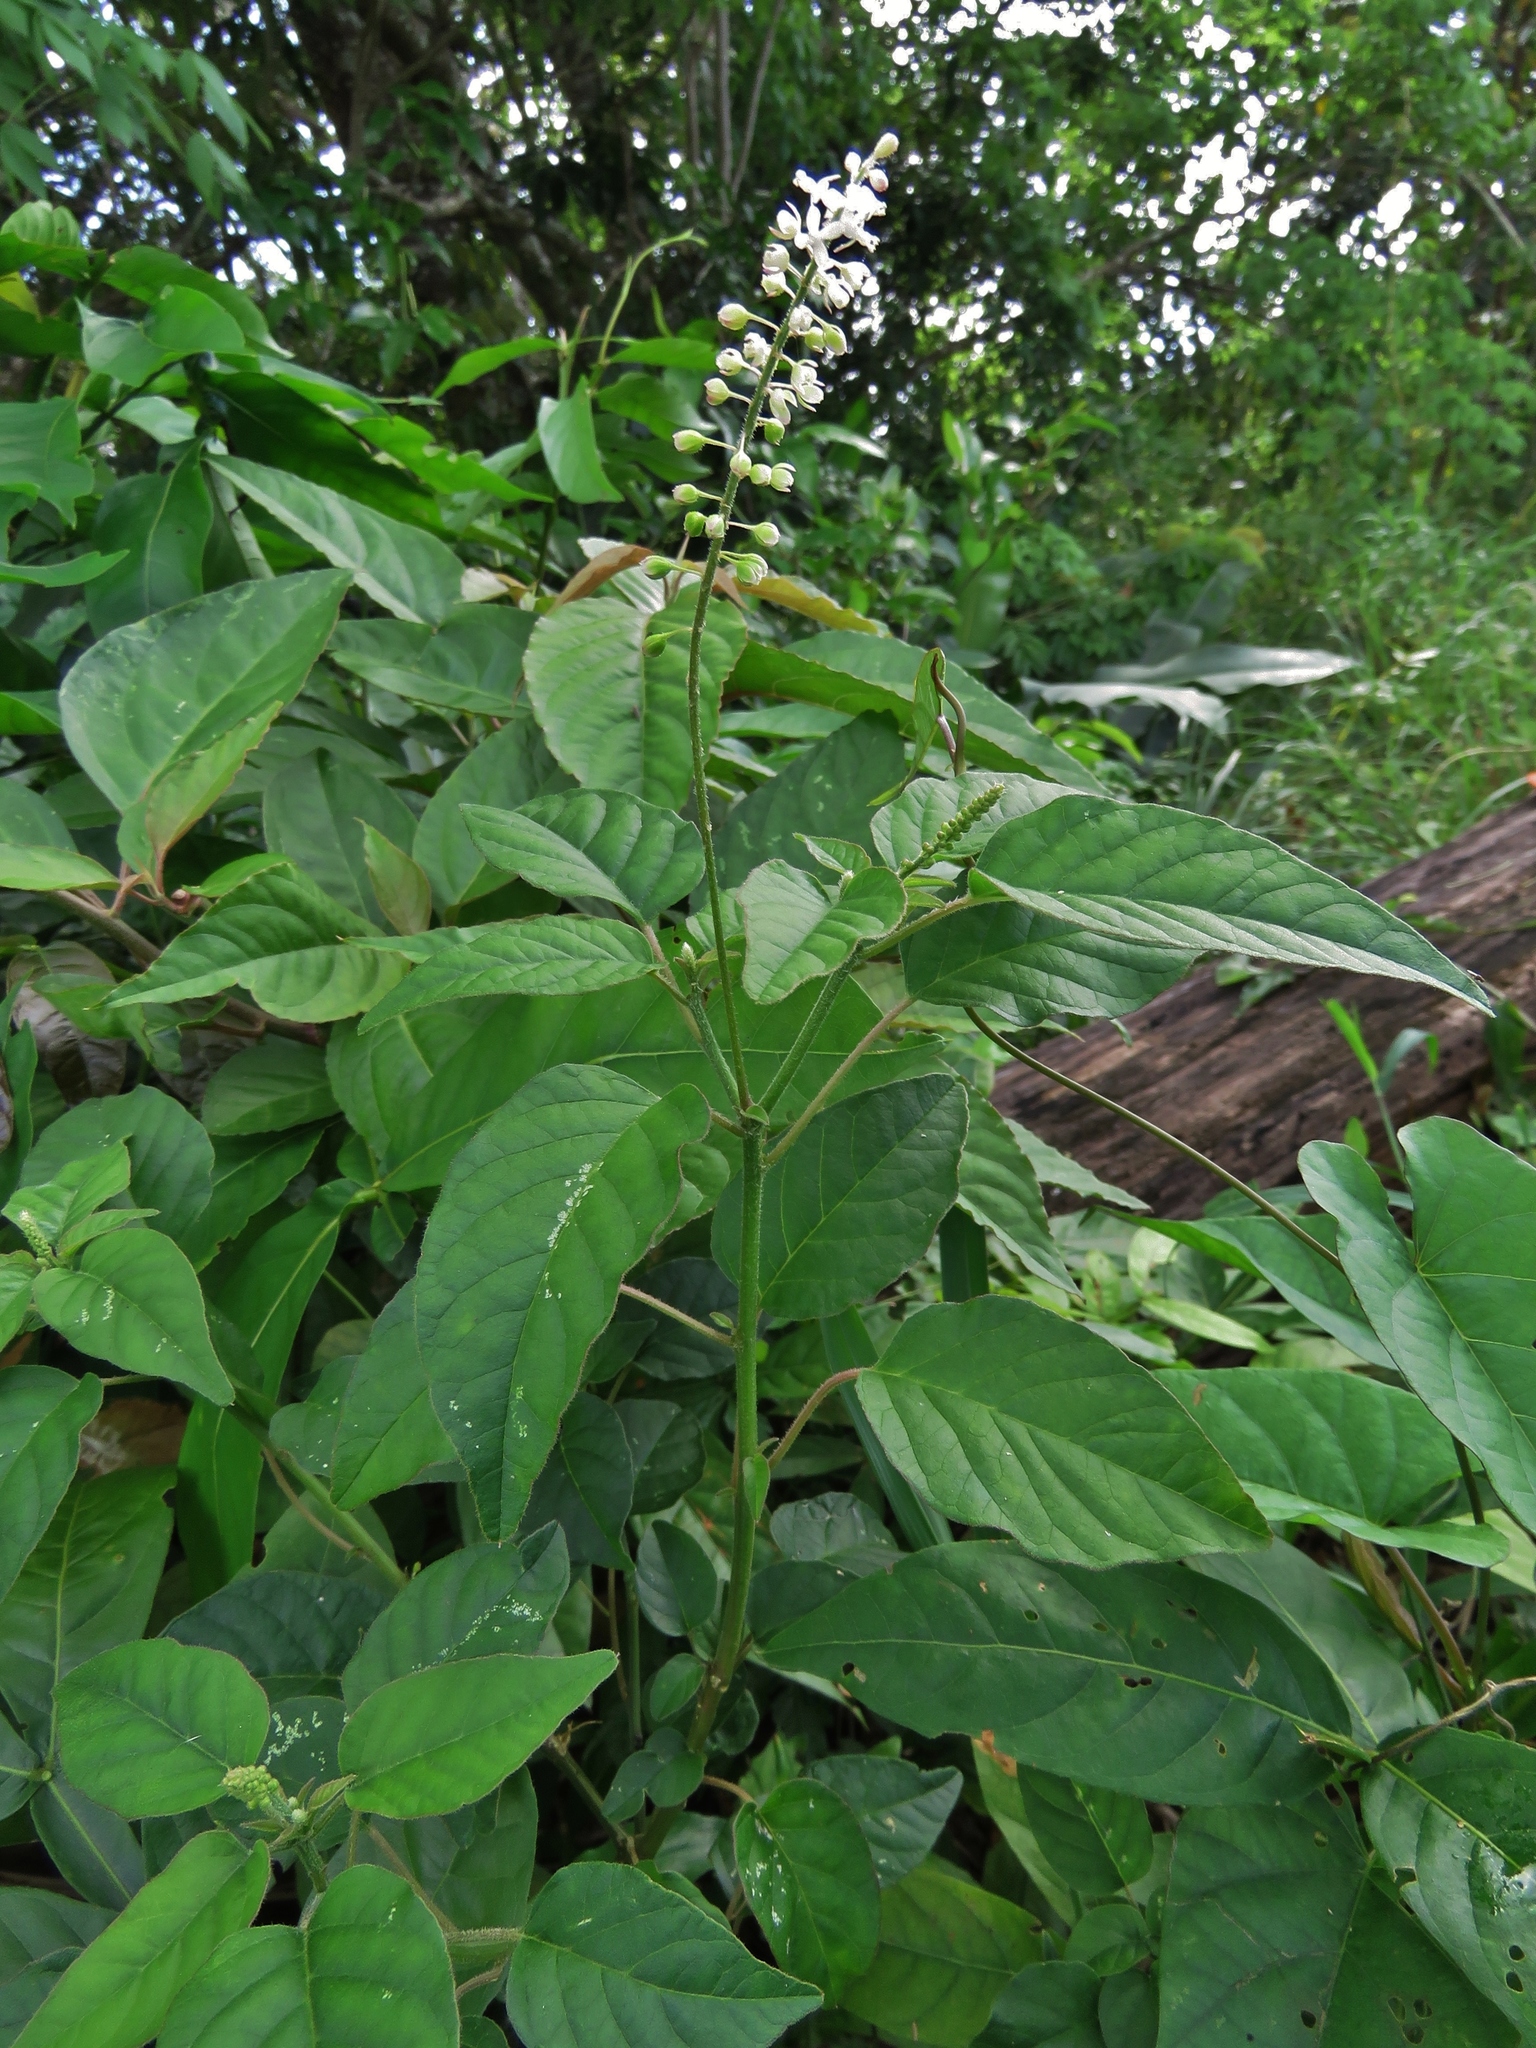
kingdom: Plantae
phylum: Tracheophyta
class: Magnoliopsida
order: Caryophyllales
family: Phytolaccaceae
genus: Rivina
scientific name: Rivina humilis
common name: Rougeplant
